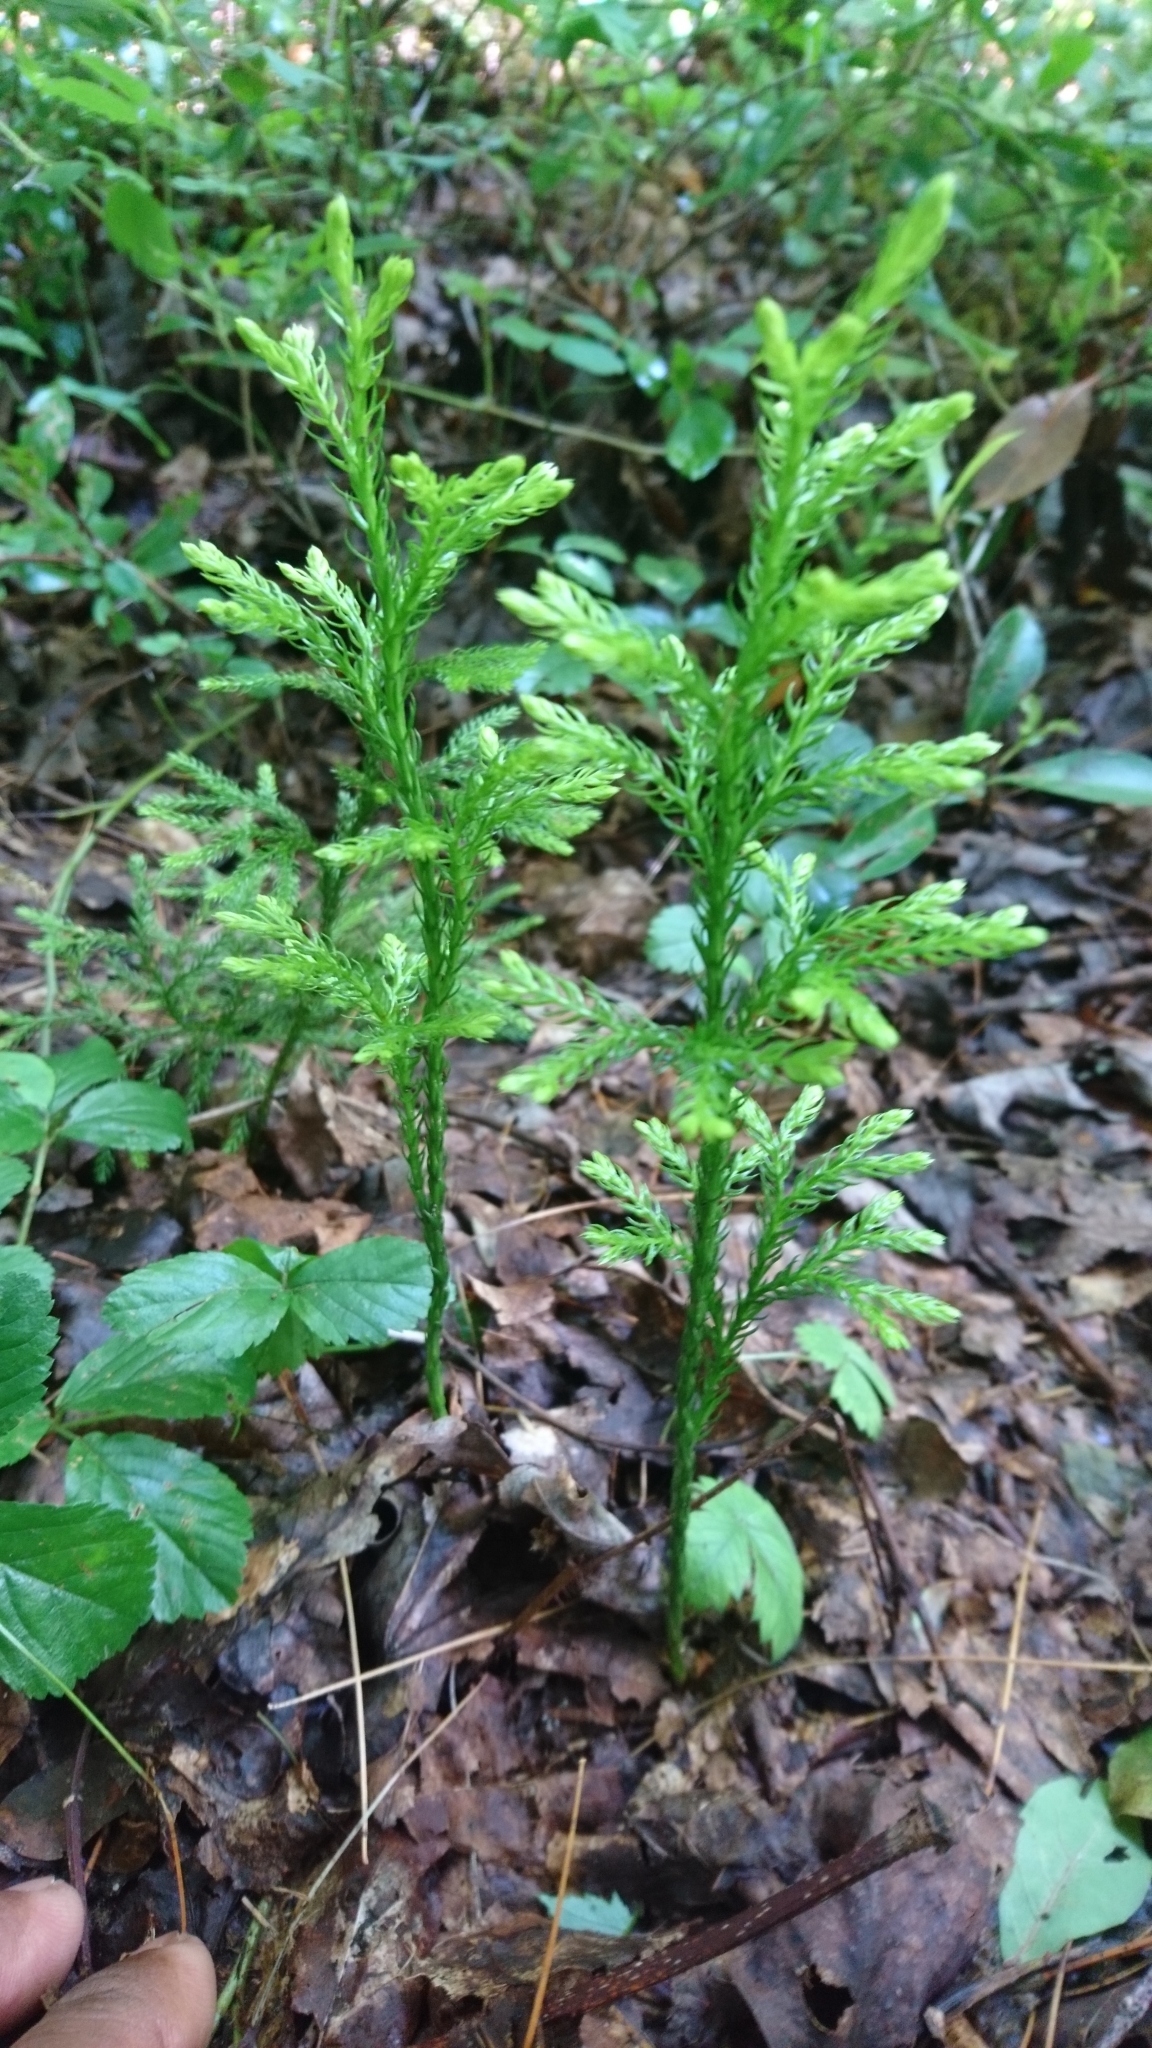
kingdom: Plantae
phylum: Tracheophyta
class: Lycopodiopsida
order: Lycopodiales
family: Lycopodiaceae
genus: Dendrolycopodium
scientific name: Dendrolycopodium hickeyi
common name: Hickey's clubmoss
